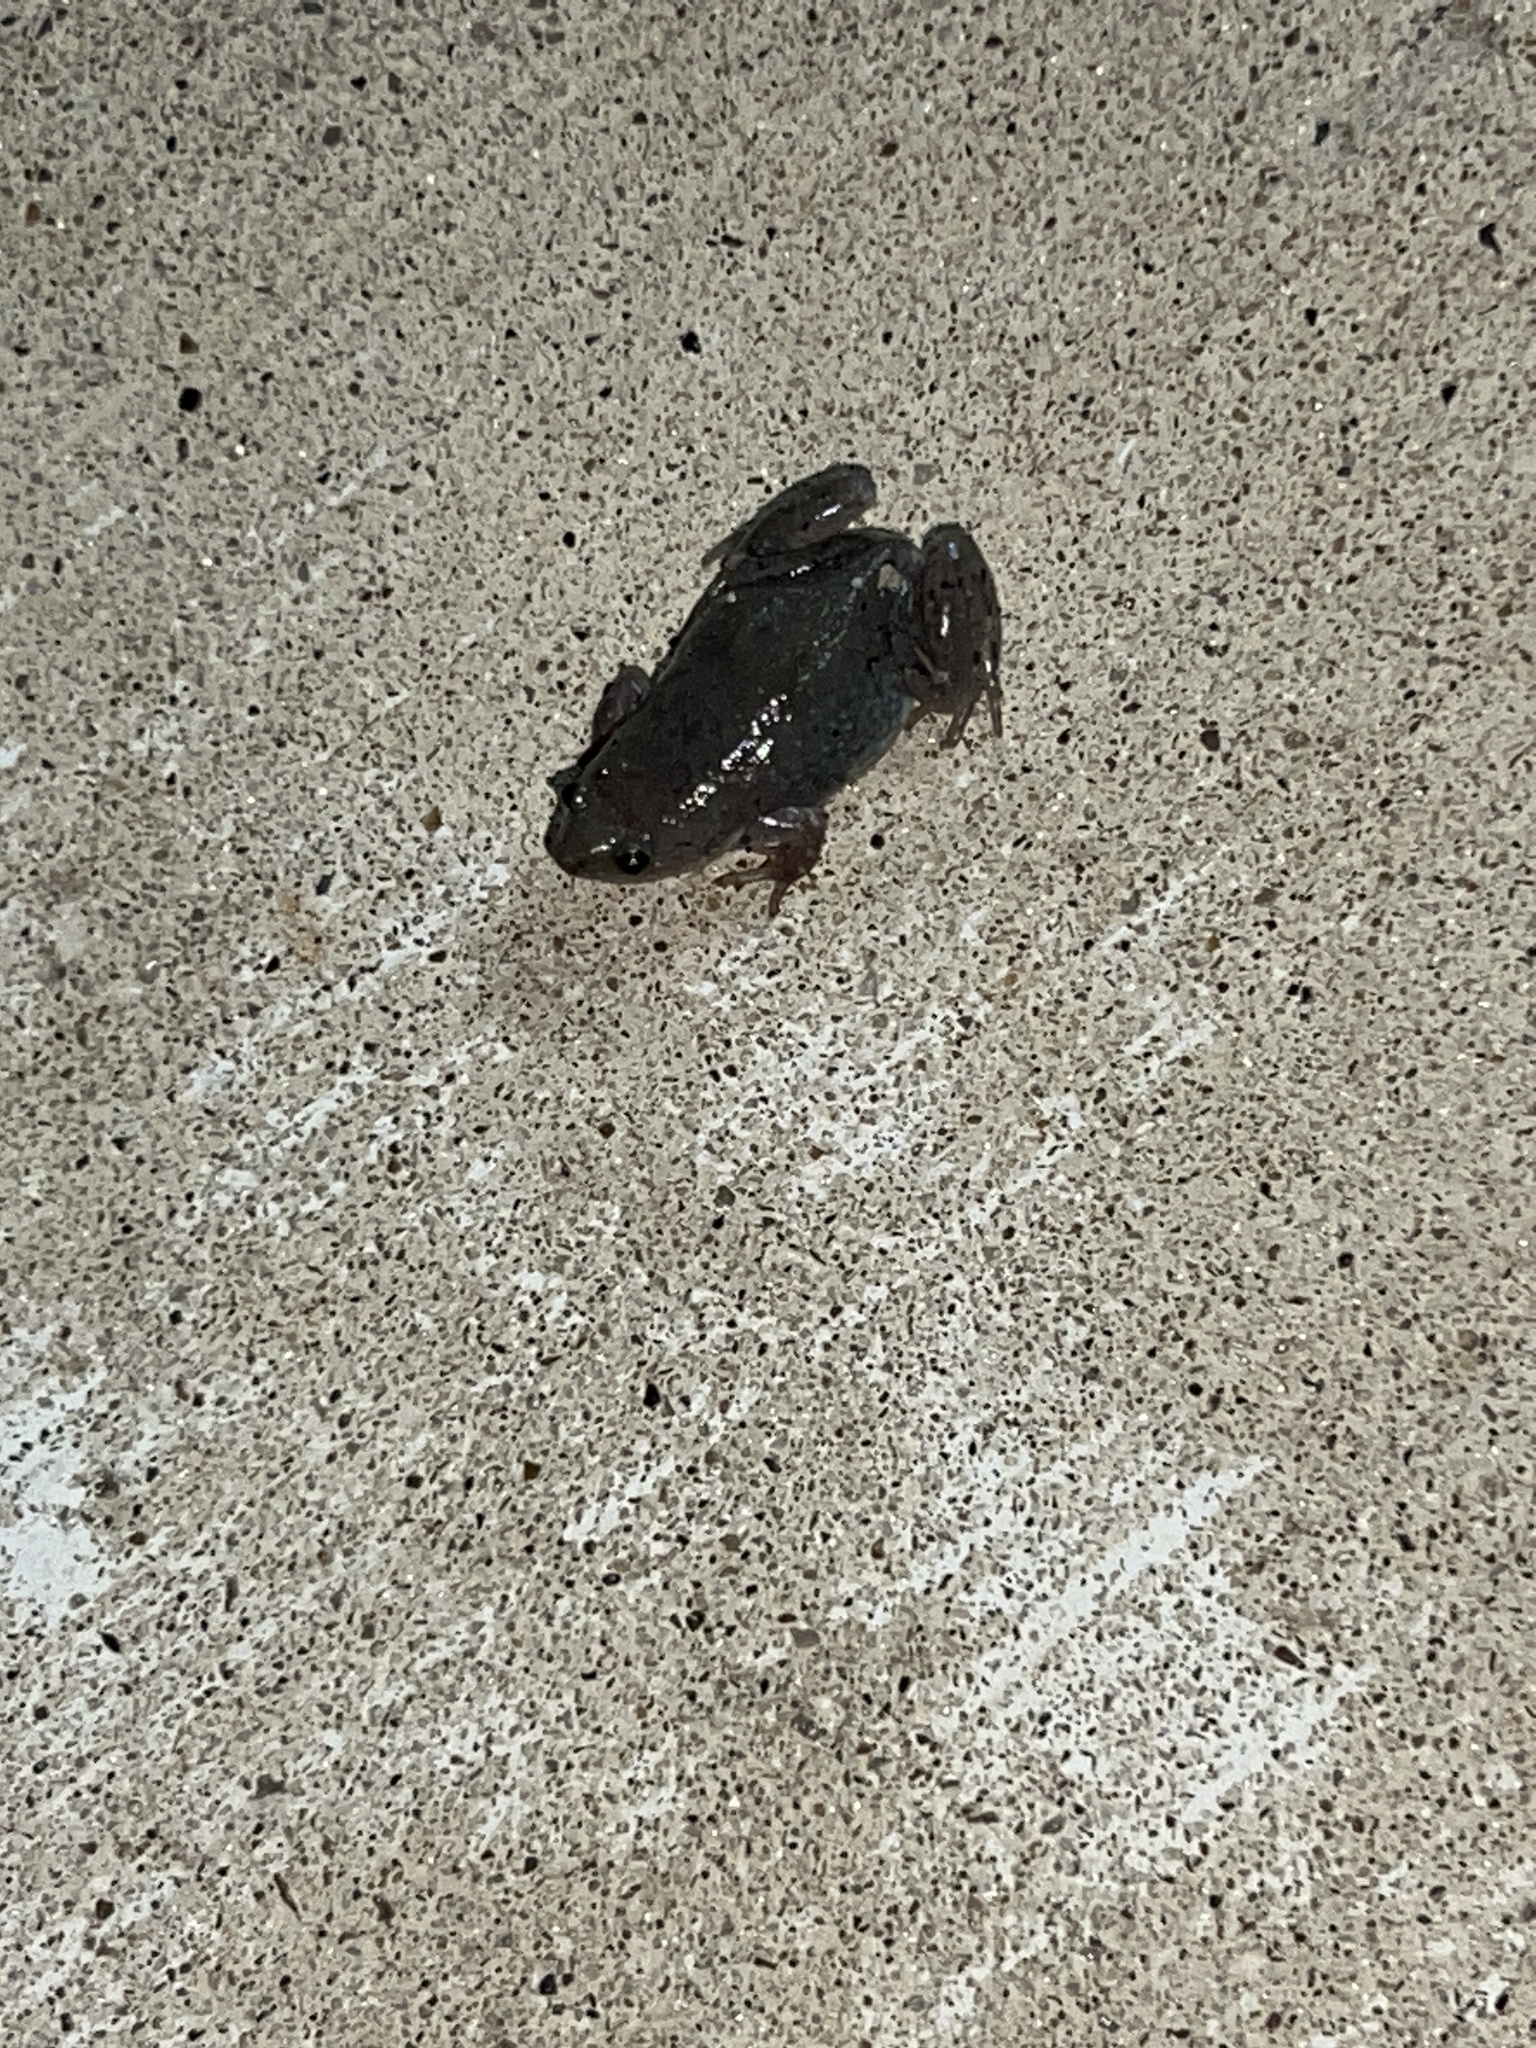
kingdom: Animalia
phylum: Chordata
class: Amphibia
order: Anura
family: Microhylidae
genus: Gastrophryne
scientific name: Gastrophryne olivacea
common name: Great plains narrow-mouthed toad
